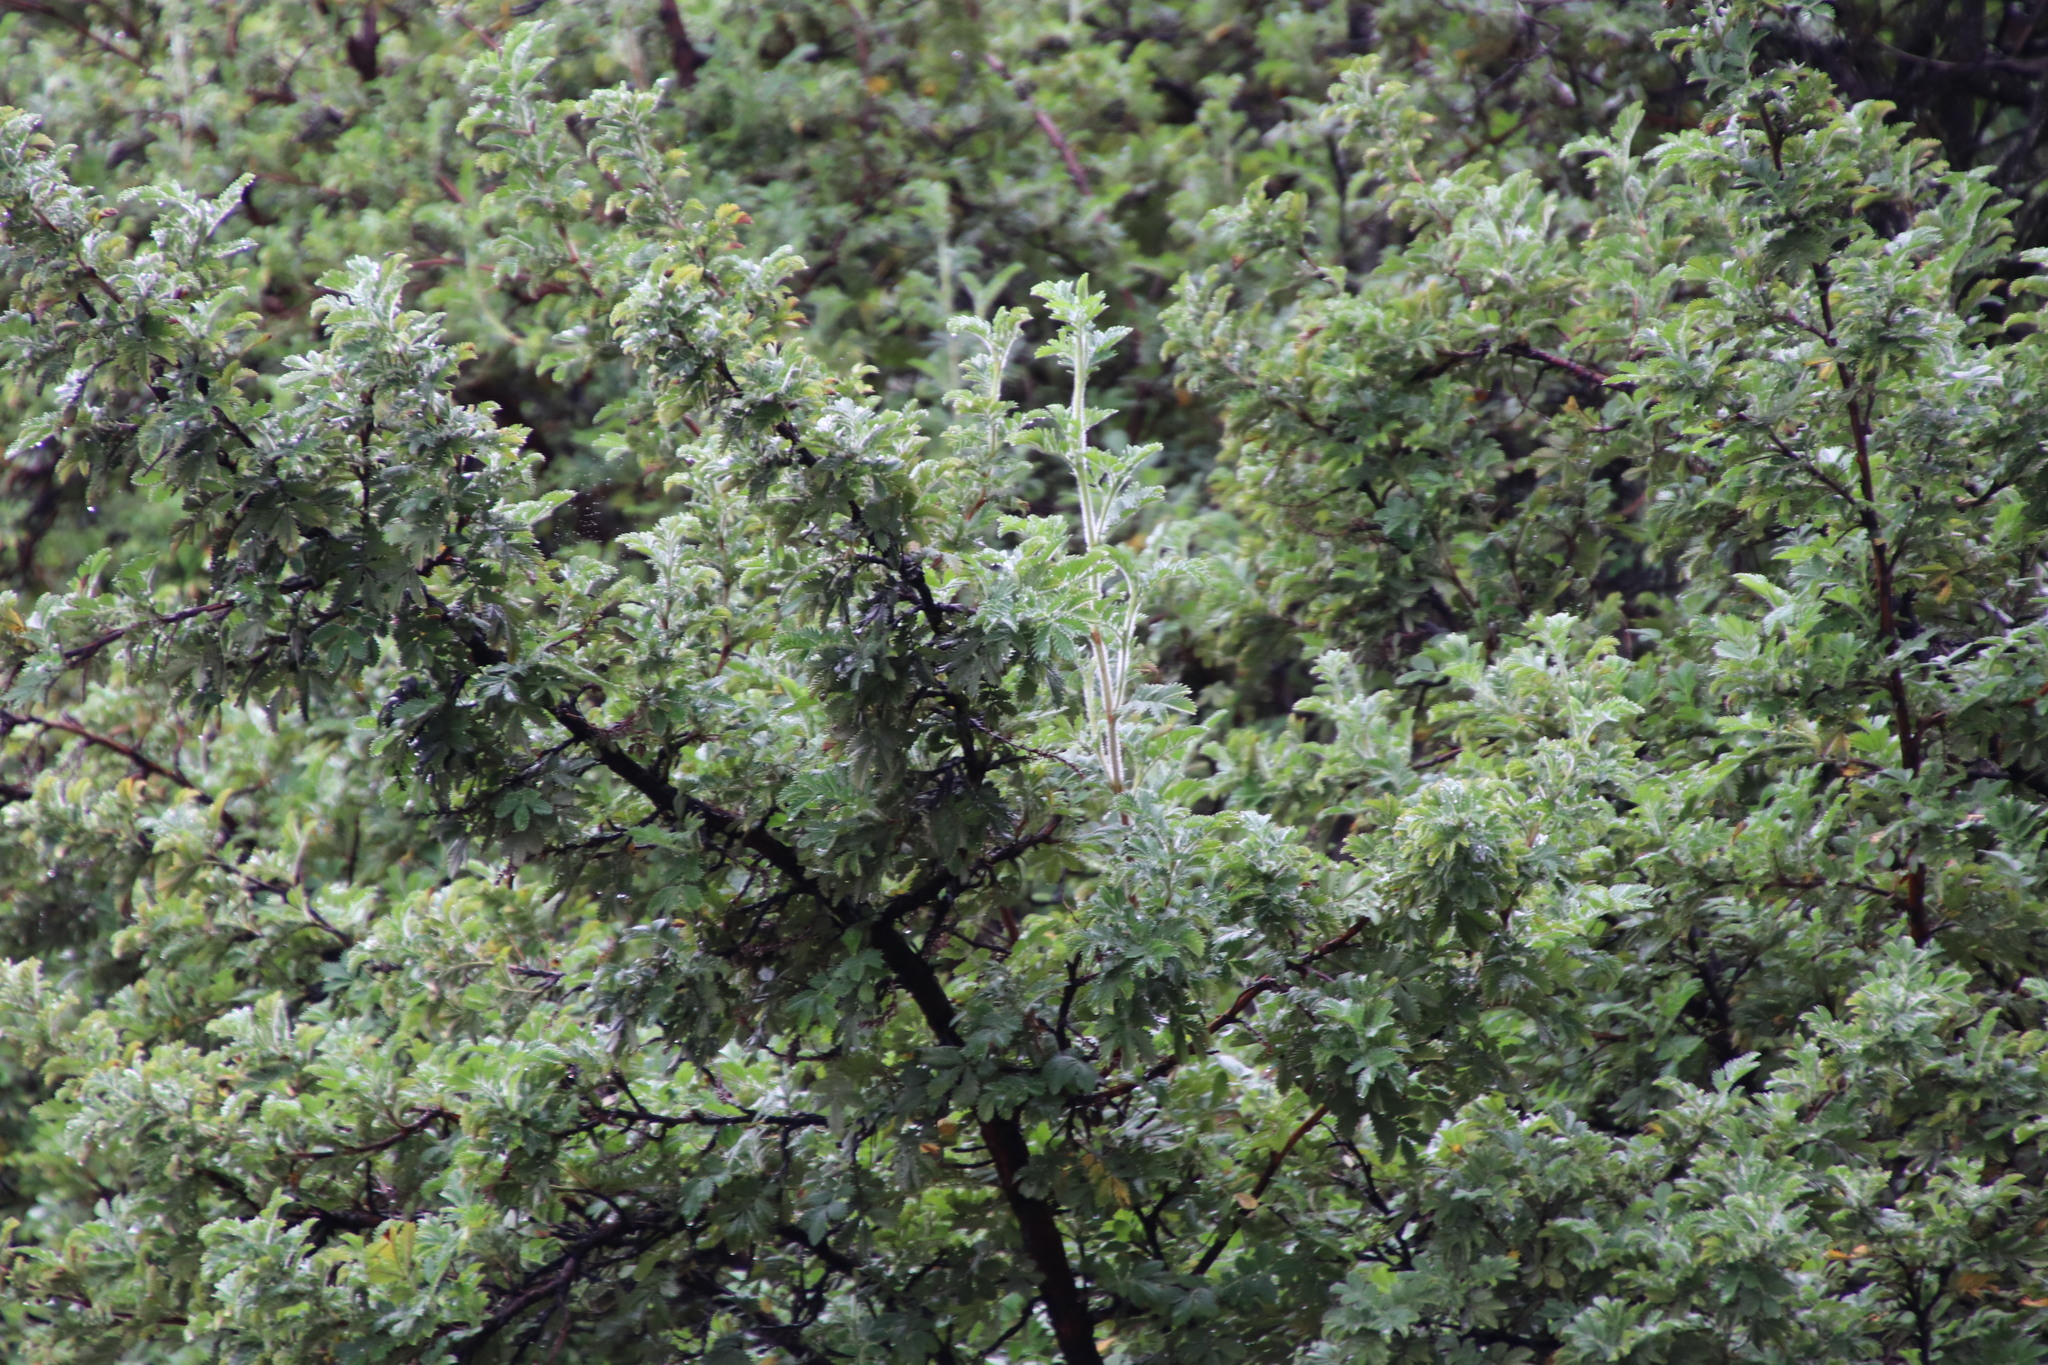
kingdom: Plantae
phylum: Tracheophyta
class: Magnoliopsida
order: Rosales
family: Rosaceae
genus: Leucosidea
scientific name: Leucosidea sericea
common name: Oldwood
